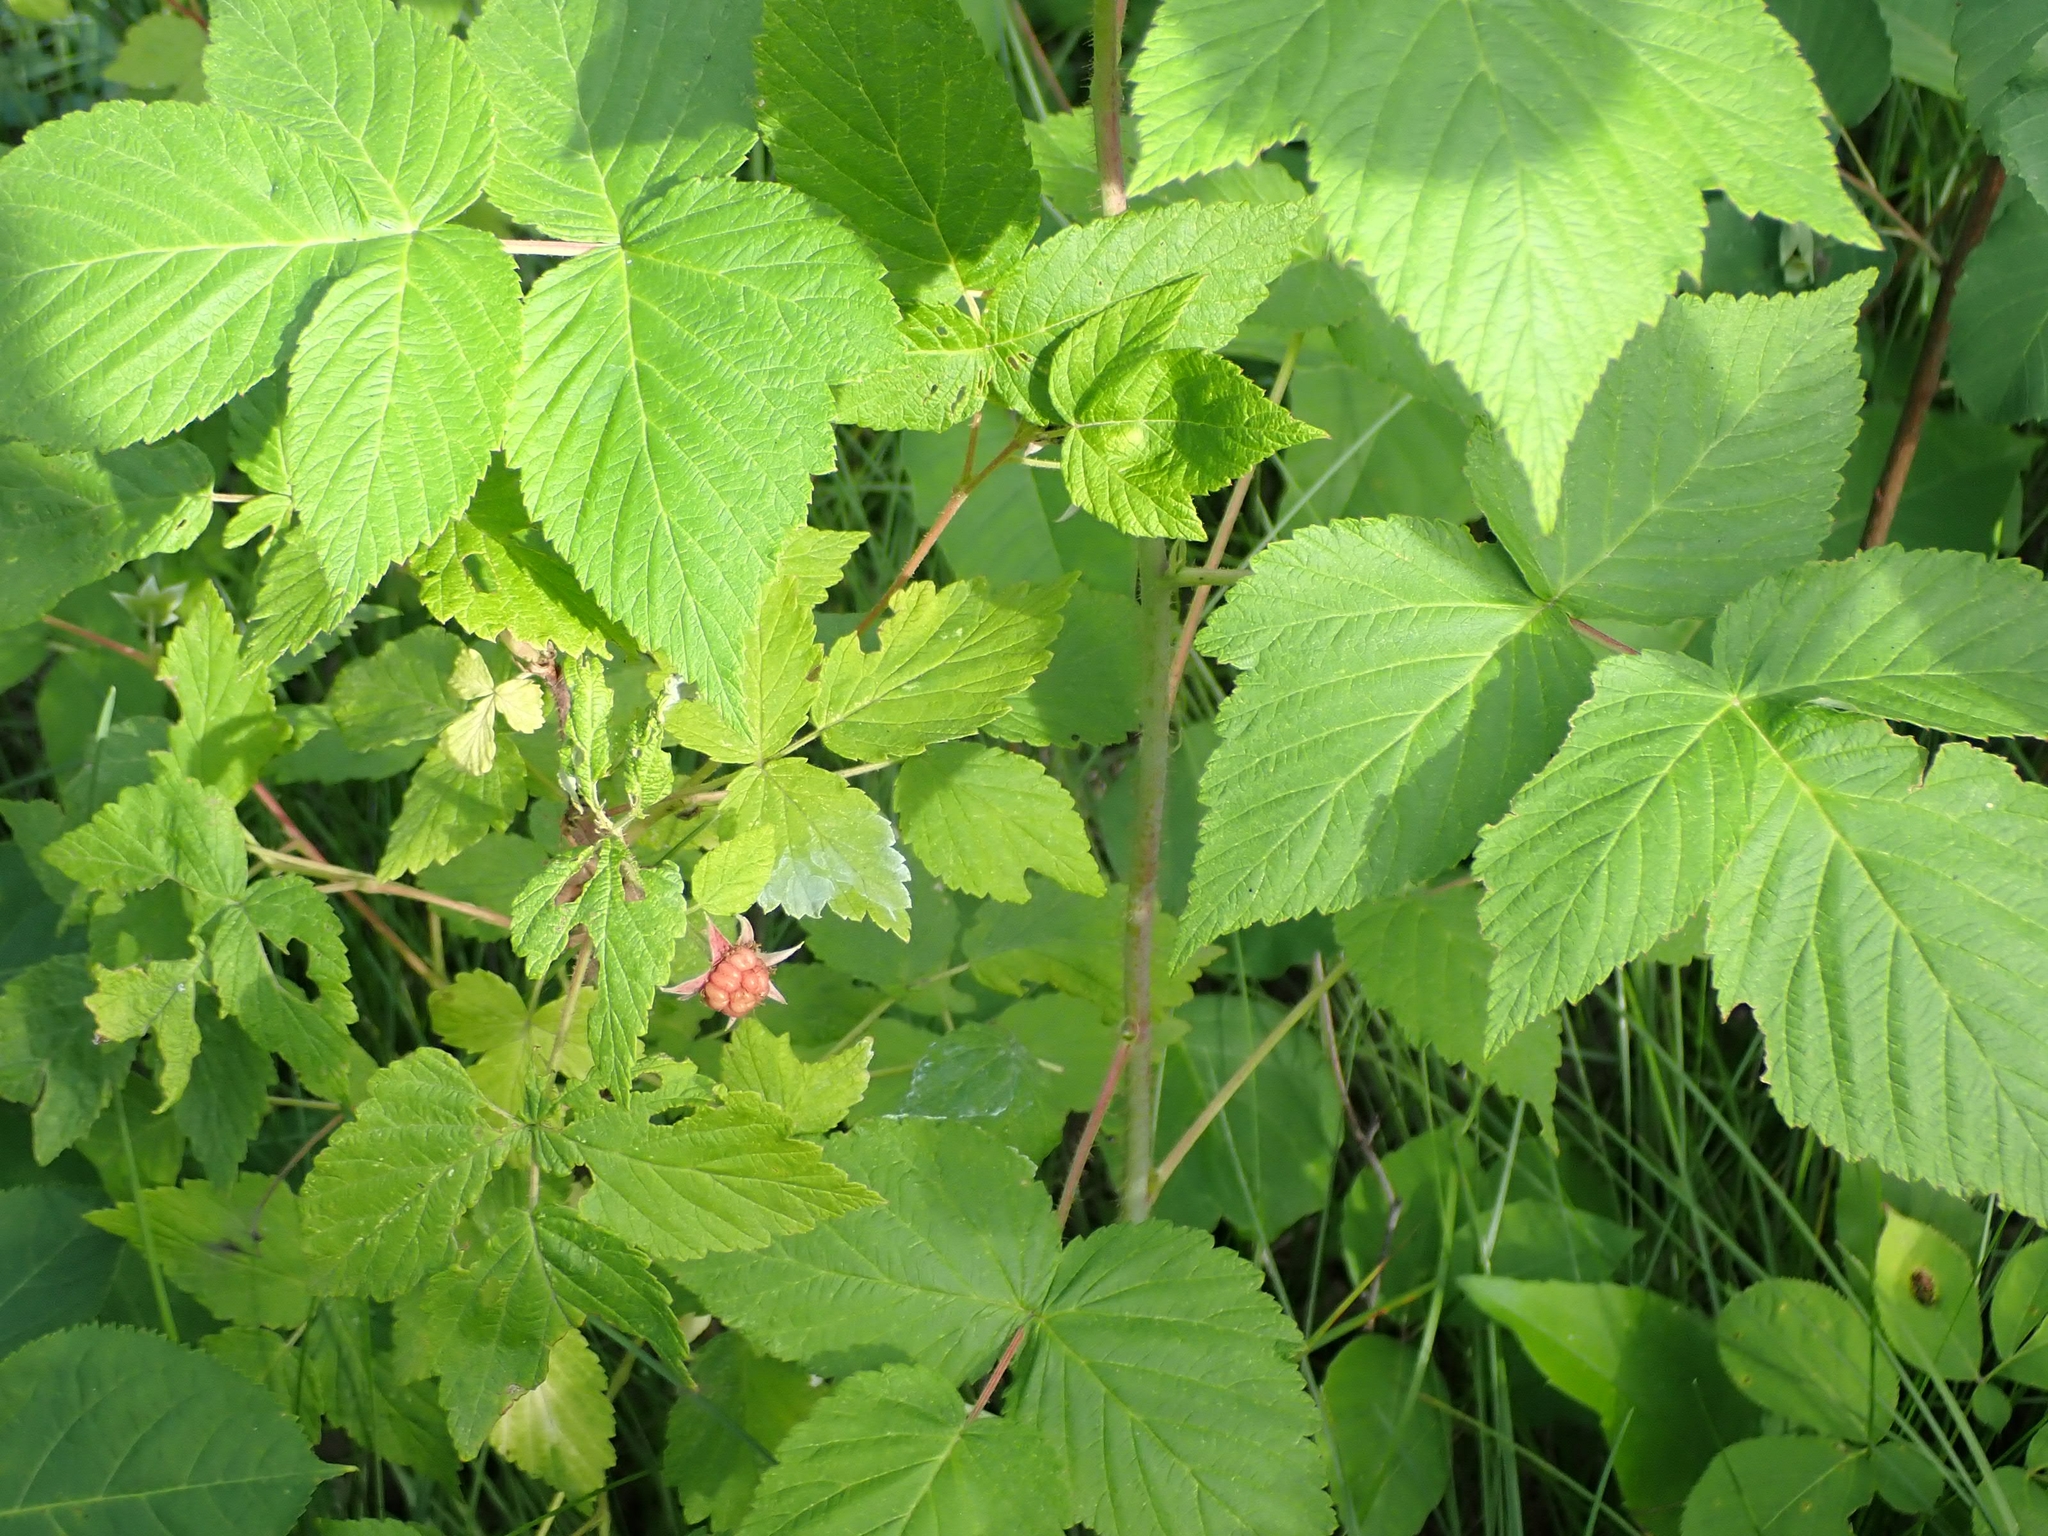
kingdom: Plantae
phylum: Tracheophyta
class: Magnoliopsida
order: Rosales
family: Rosaceae
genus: Rubus
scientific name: Rubus idaeus
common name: Raspberry
